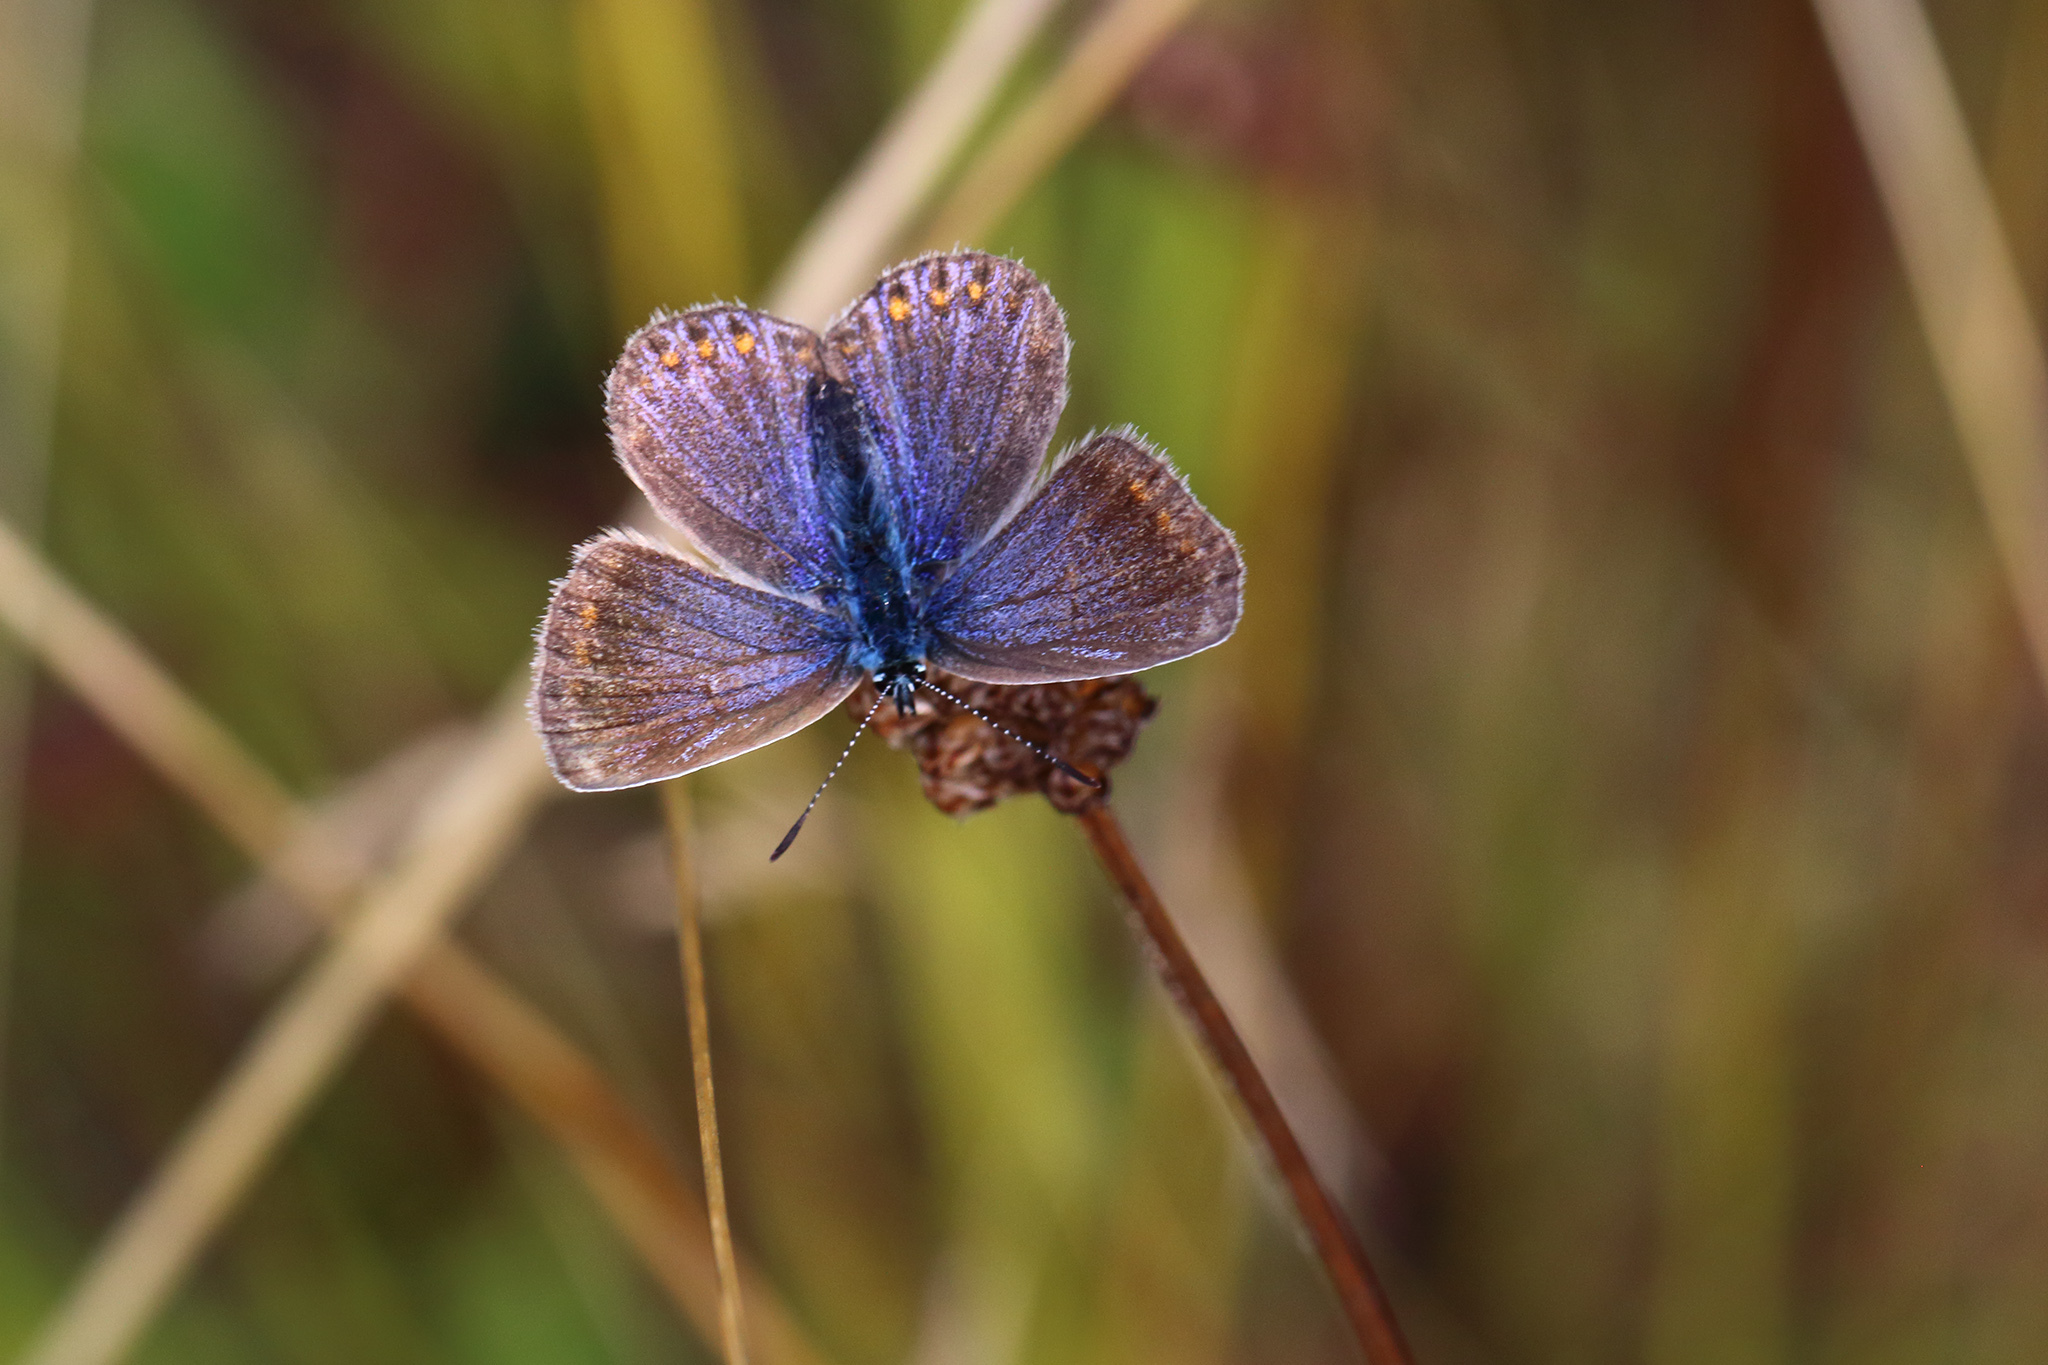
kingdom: Animalia
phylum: Arthropoda
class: Insecta
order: Lepidoptera
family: Lycaenidae
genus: Polyommatus
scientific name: Polyommatus icarus
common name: Common blue
